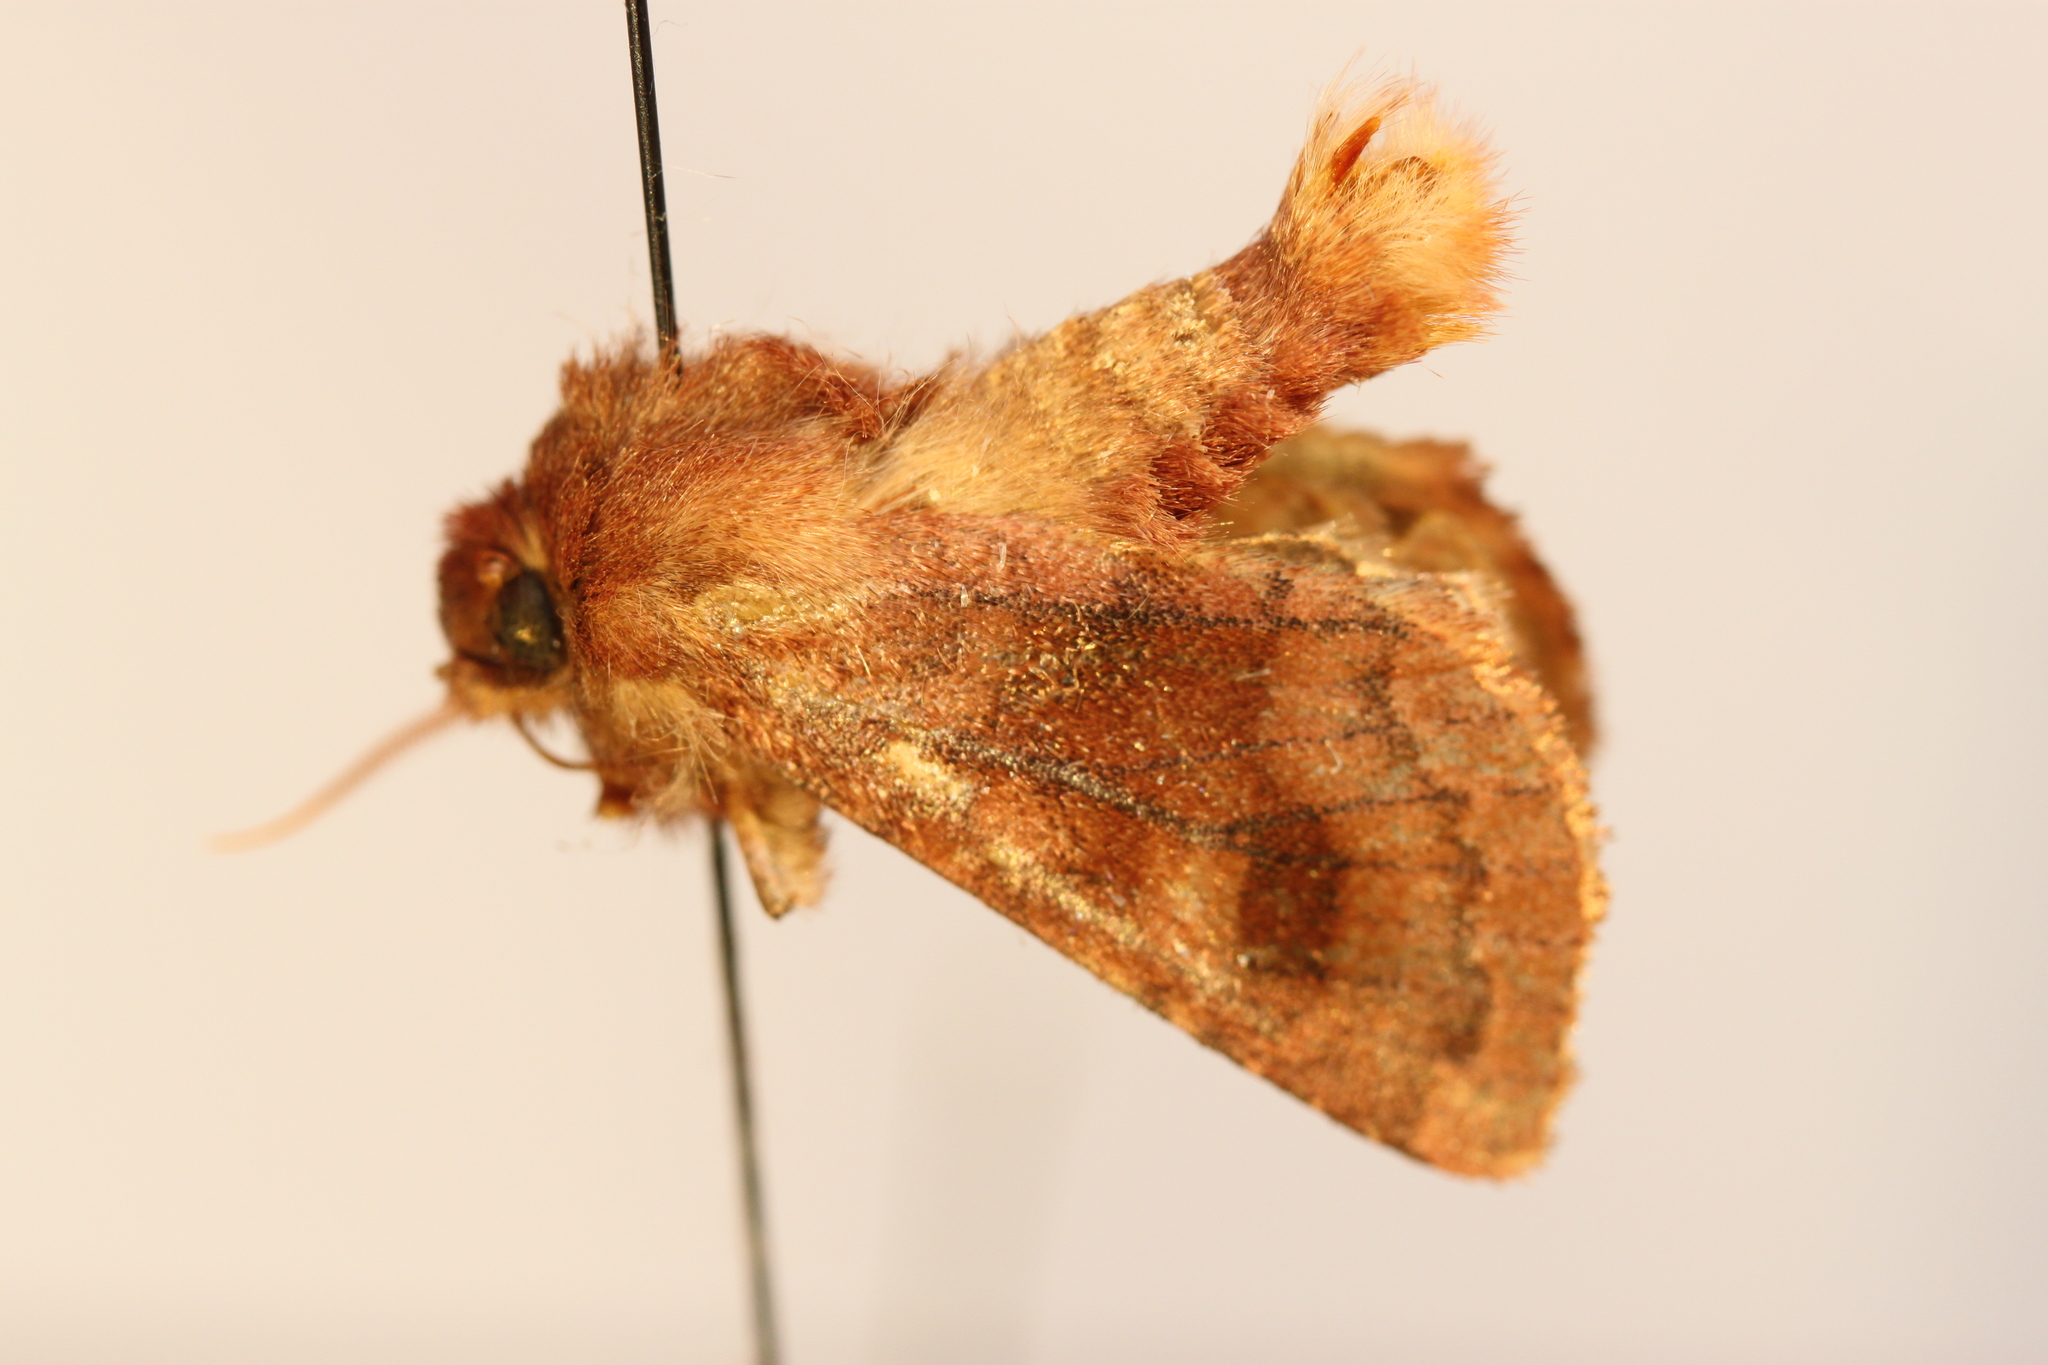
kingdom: Animalia
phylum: Arthropoda
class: Insecta
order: Lepidoptera
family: Noctuidae
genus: Nephelodes
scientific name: Nephelodes minians
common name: Bronzed cutworm
